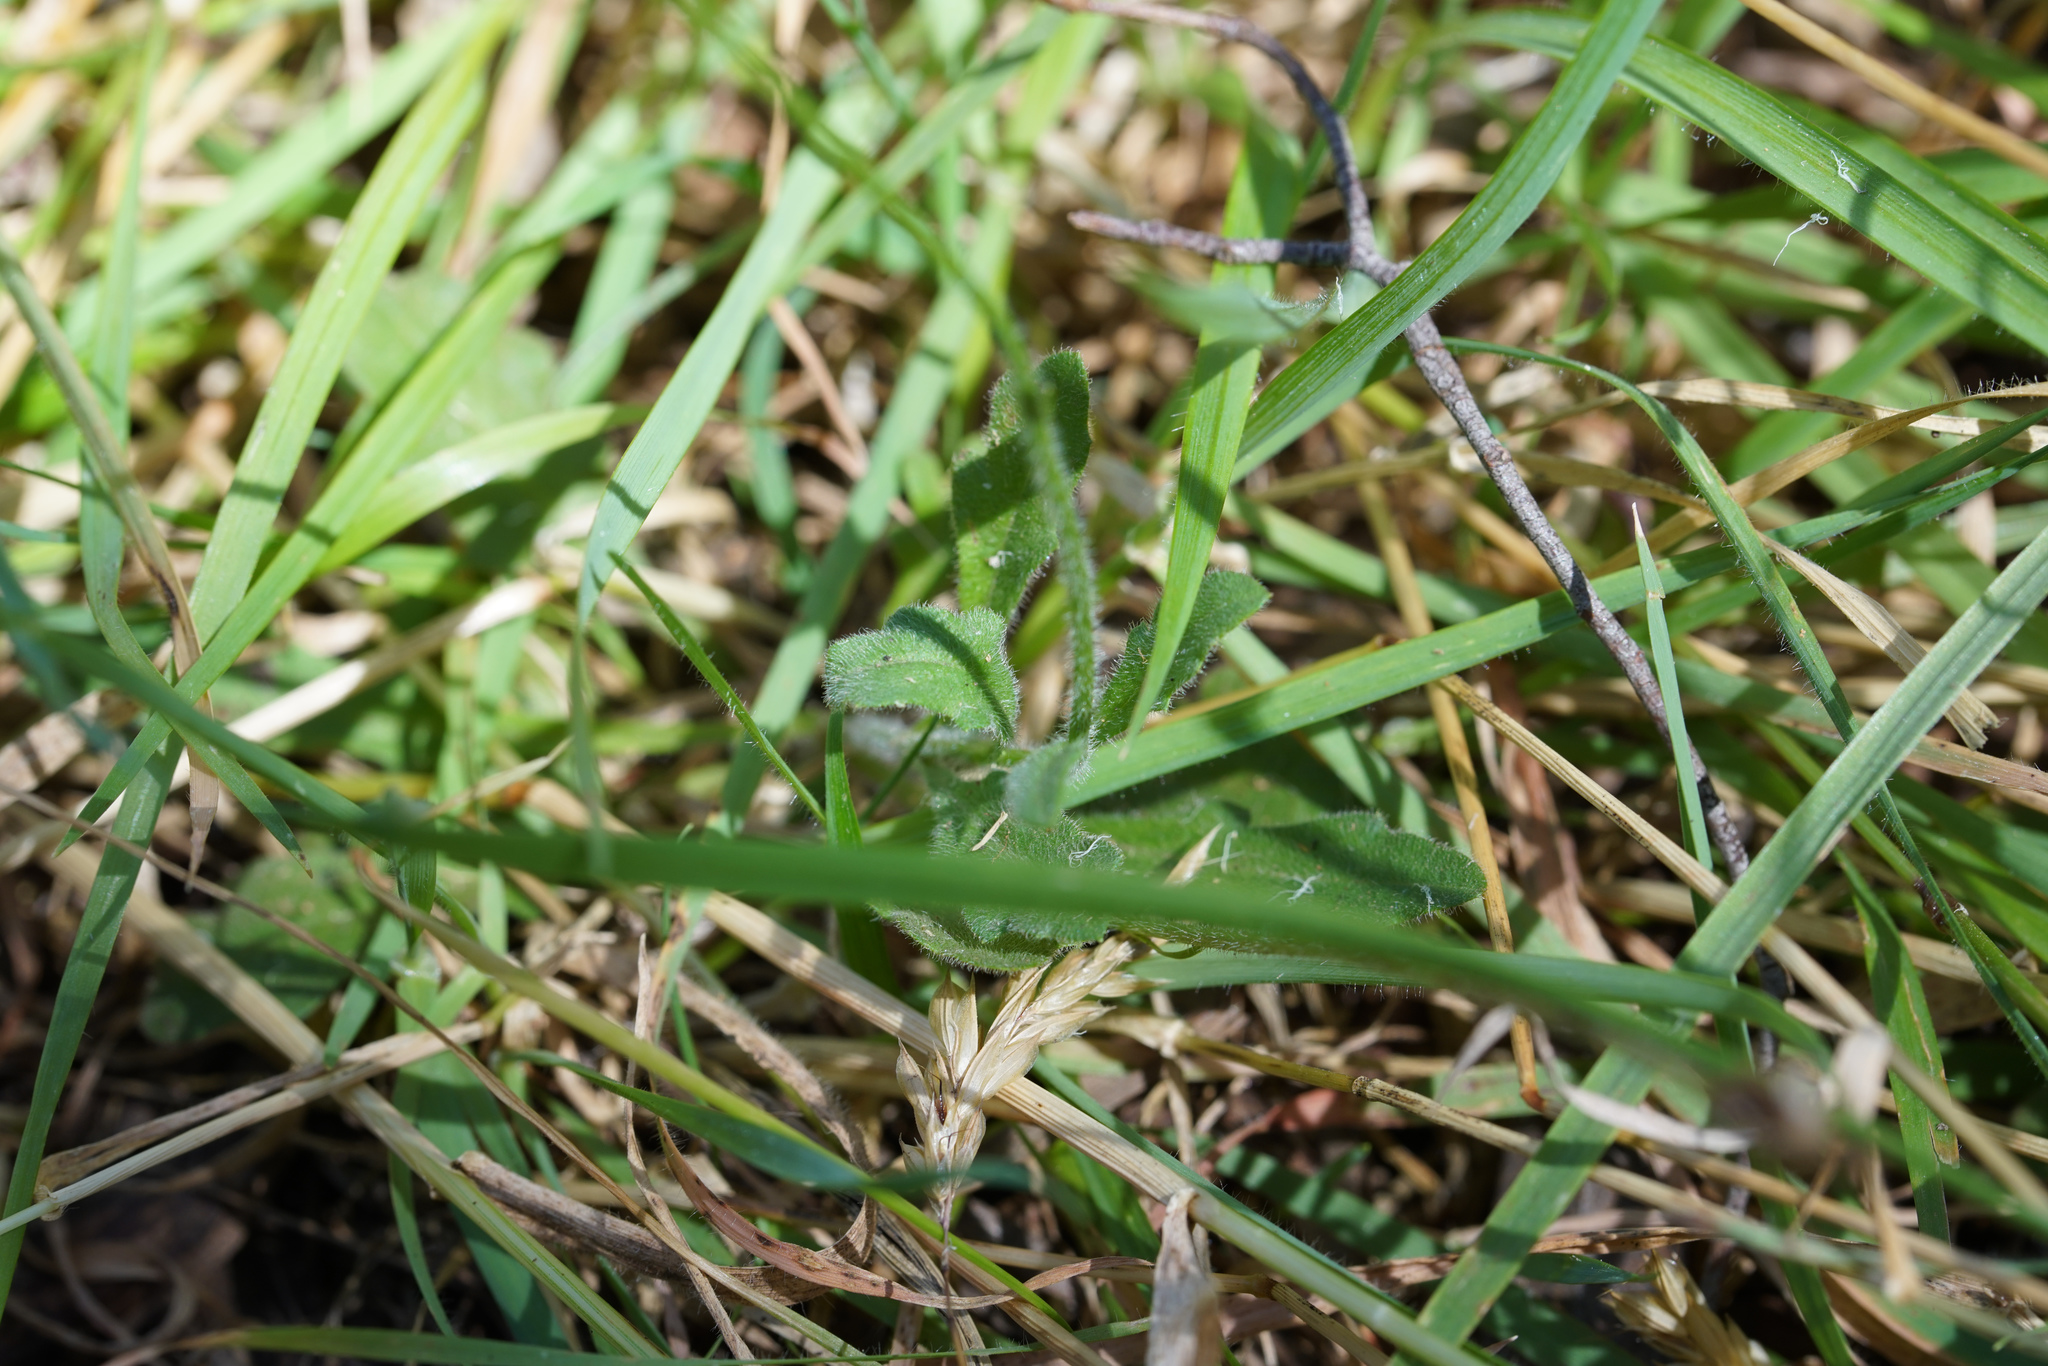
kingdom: Plantae
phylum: Tracheophyta
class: Magnoliopsida
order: Asterales
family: Asteraceae
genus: Lagenophora
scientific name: Lagenophora stipitata
